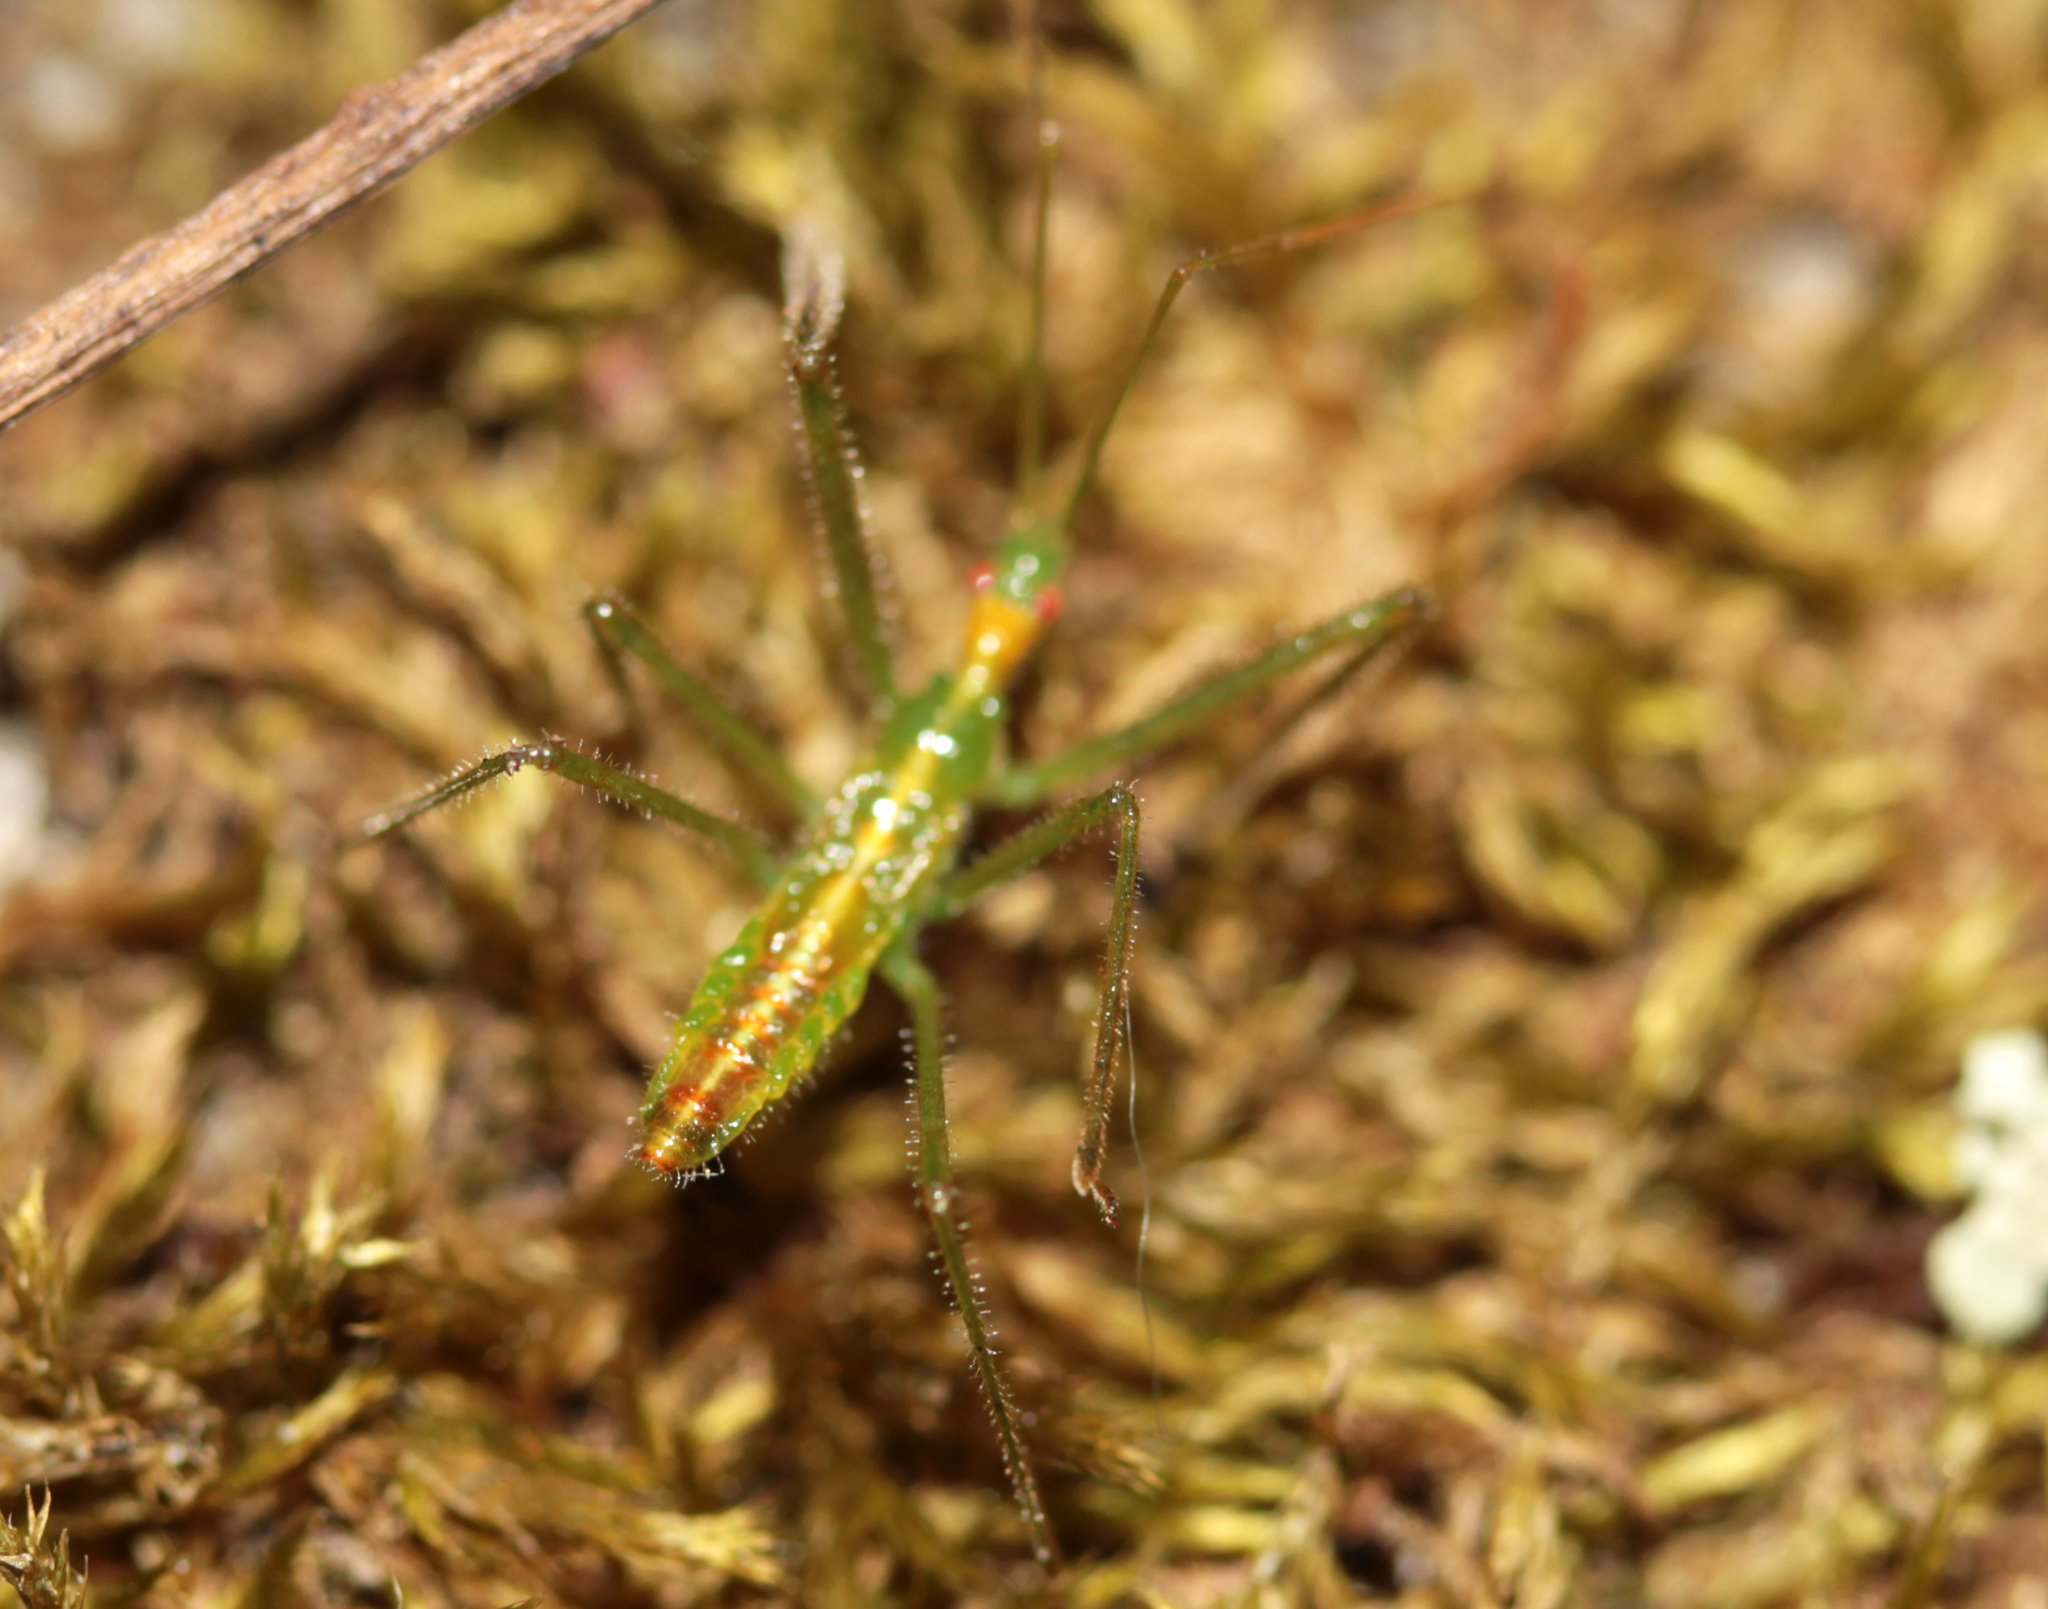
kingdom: Animalia
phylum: Arthropoda
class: Insecta
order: Hemiptera
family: Reduviidae
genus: Zelus
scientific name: Zelus luridus
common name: Pale green assassin bug
